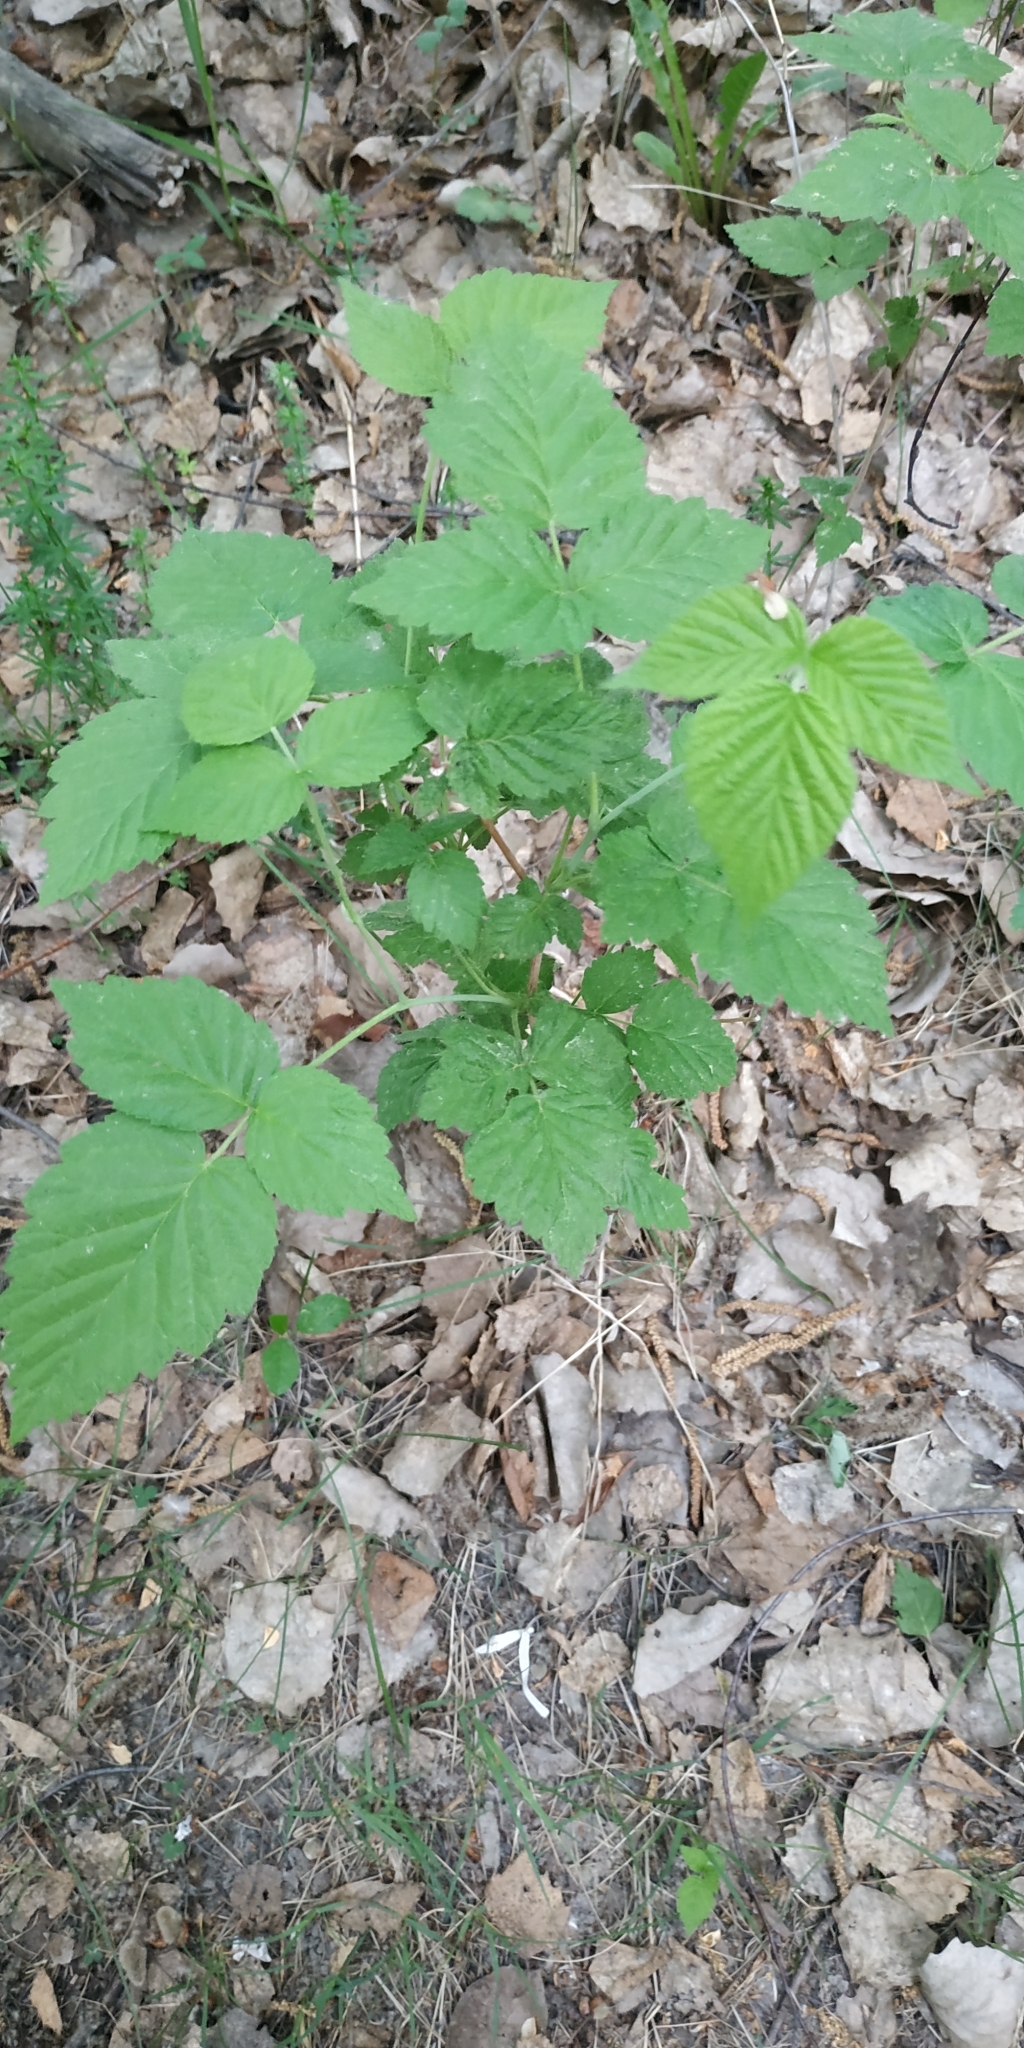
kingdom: Plantae
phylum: Tracheophyta
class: Magnoliopsida
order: Rosales
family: Rosaceae
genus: Rubus
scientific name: Rubus idaeus
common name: Raspberry
